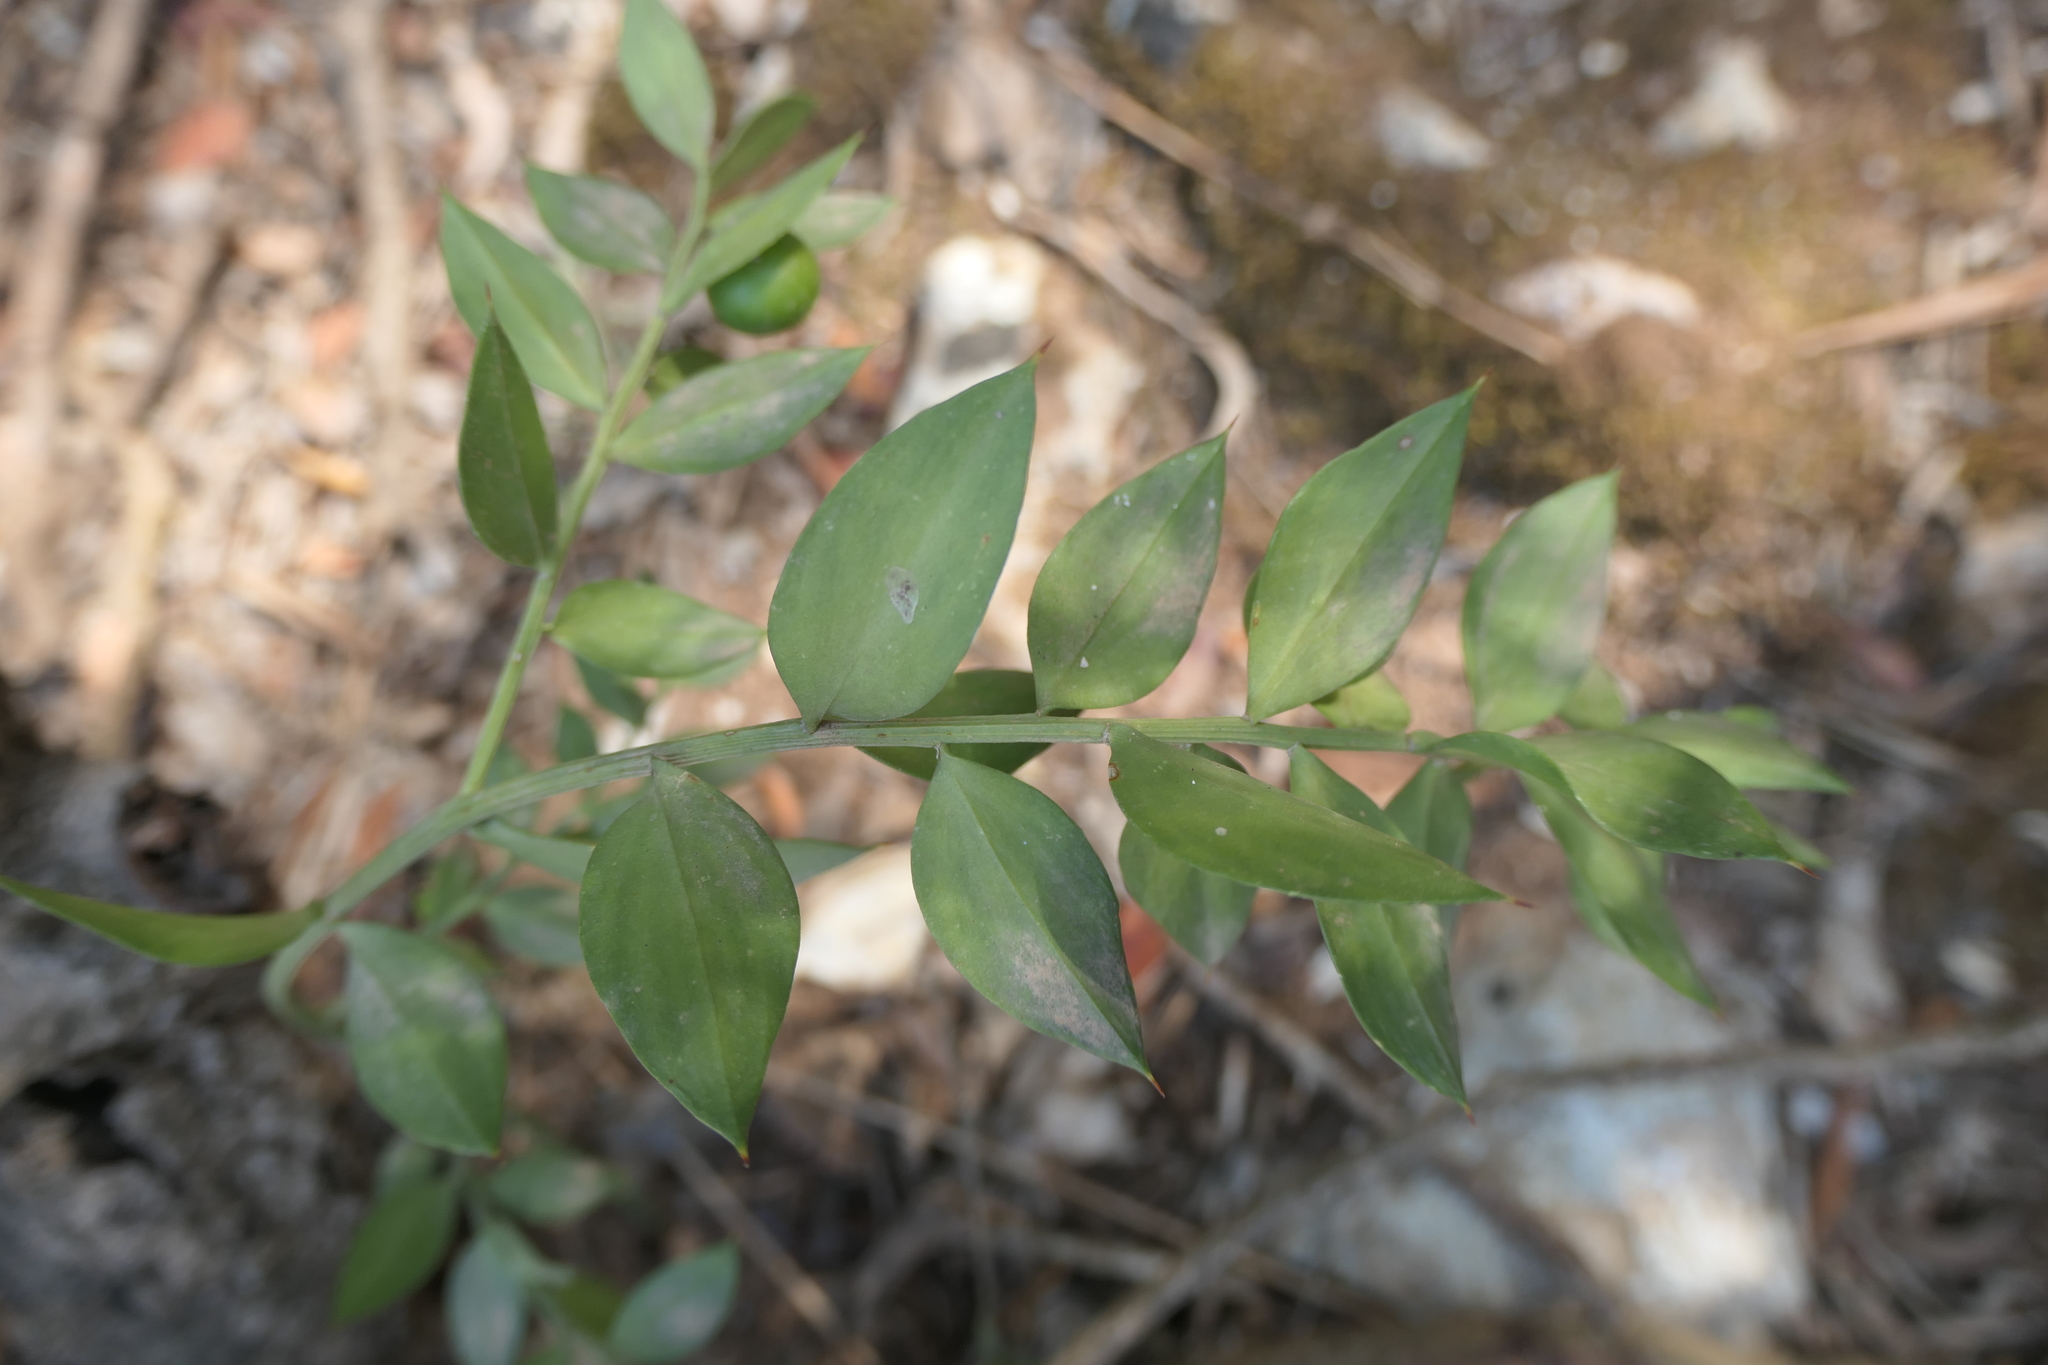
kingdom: Plantae
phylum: Tracheophyta
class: Liliopsida
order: Asparagales
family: Asparagaceae
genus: Ruscus
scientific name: Ruscus aculeatus
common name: Butcher's-broom
